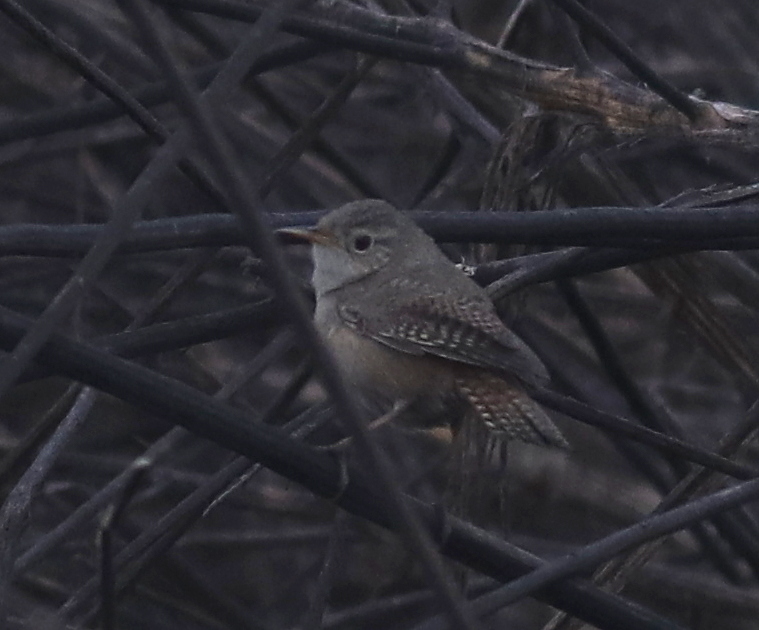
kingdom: Animalia
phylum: Chordata
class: Aves
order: Passeriformes
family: Troglodytidae
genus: Troglodytes
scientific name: Troglodytes aedon
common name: House wren
